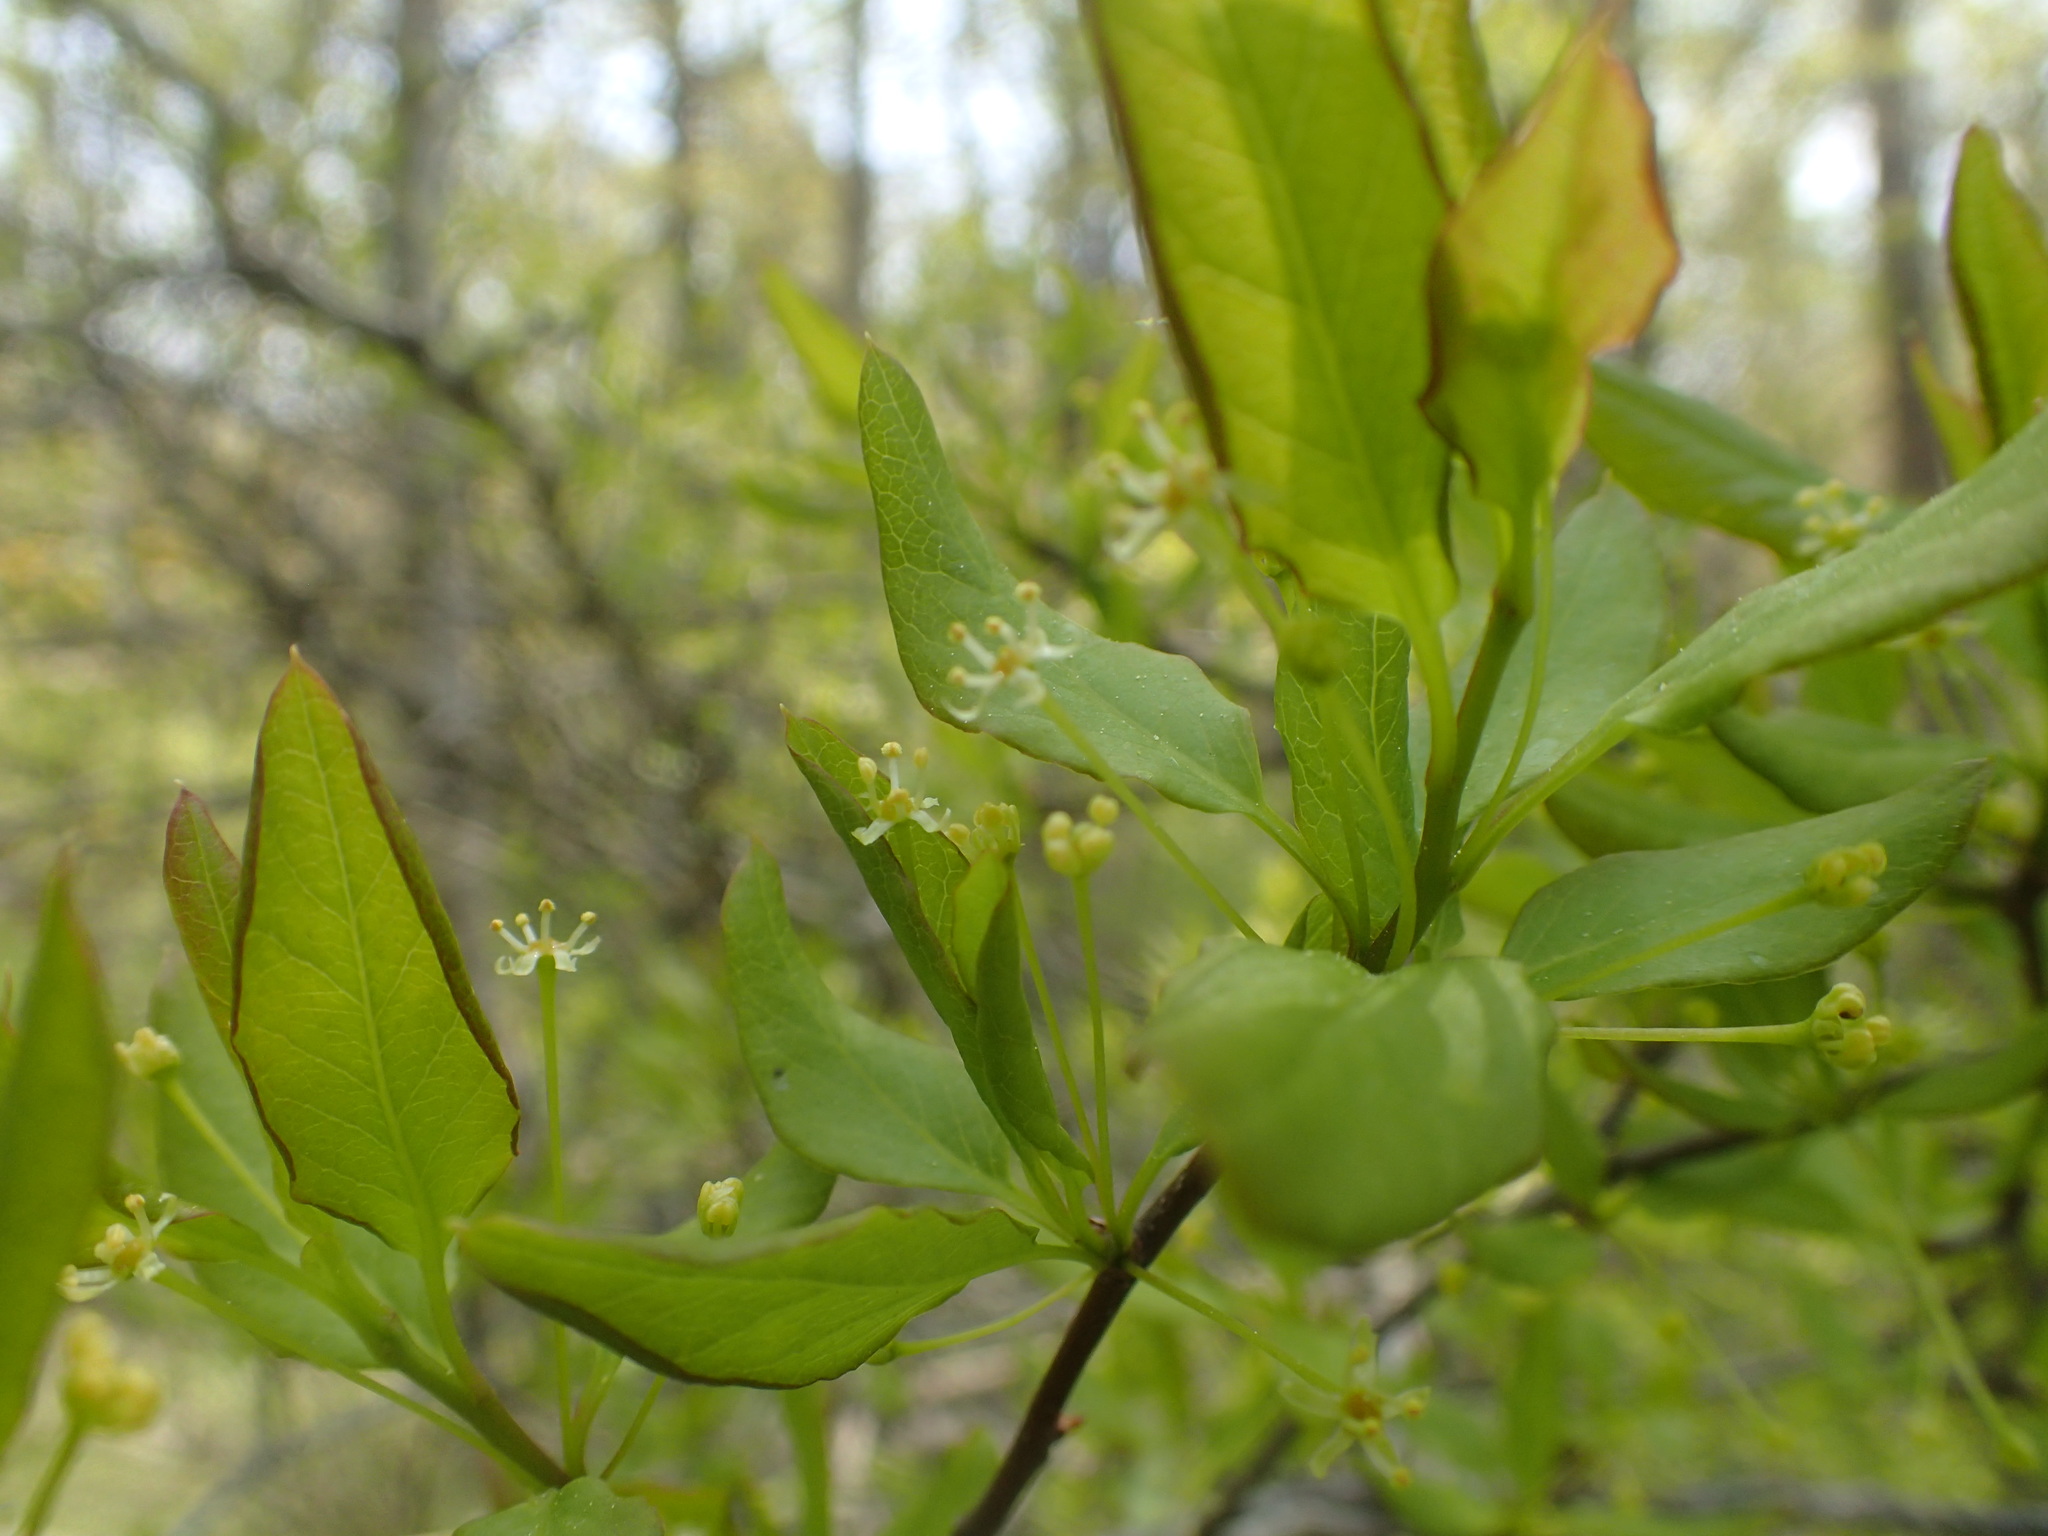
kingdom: Plantae
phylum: Tracheophyta
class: Magnoliopsida
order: Aquifoliales
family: Aquifoliaceae
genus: Ilex
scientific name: Ilex mucronata
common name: Catberry
